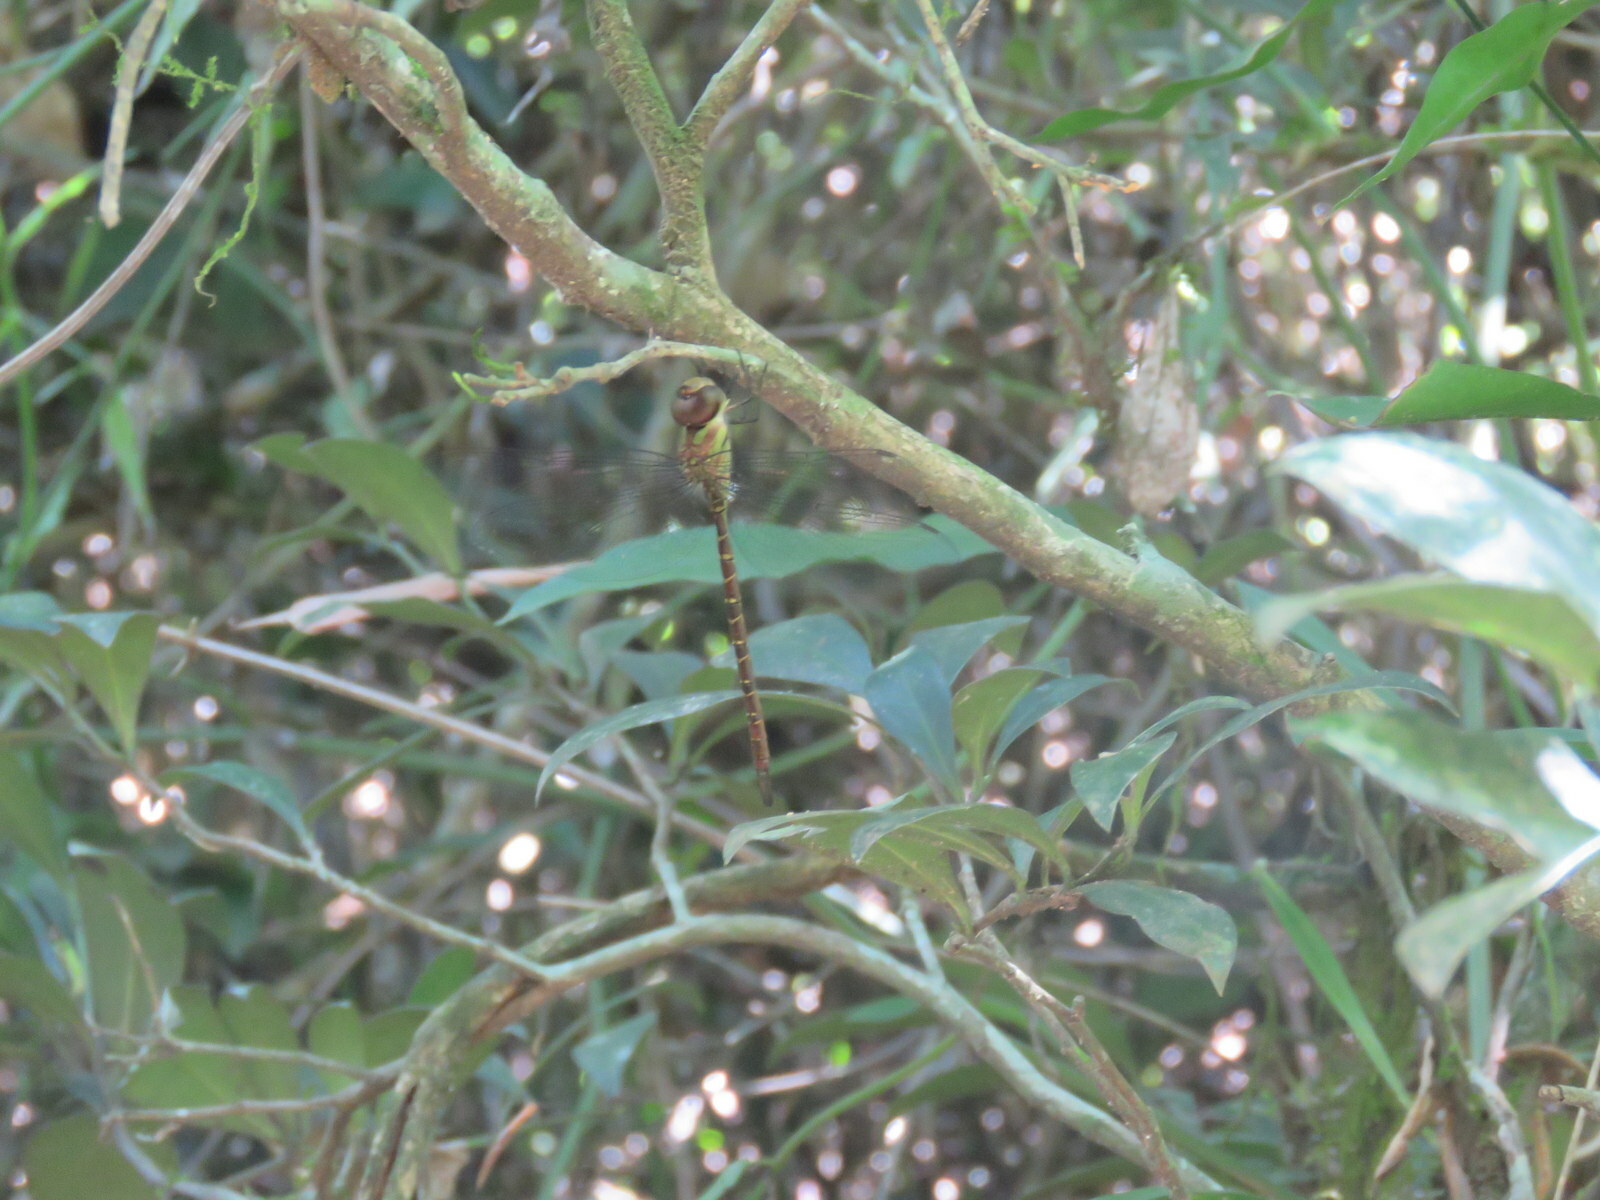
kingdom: Animalia
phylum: Arthropoda
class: Insecta
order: Odonata
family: Aeshnidae
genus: Triacanthagyna
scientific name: Triacanthagyna nympha
